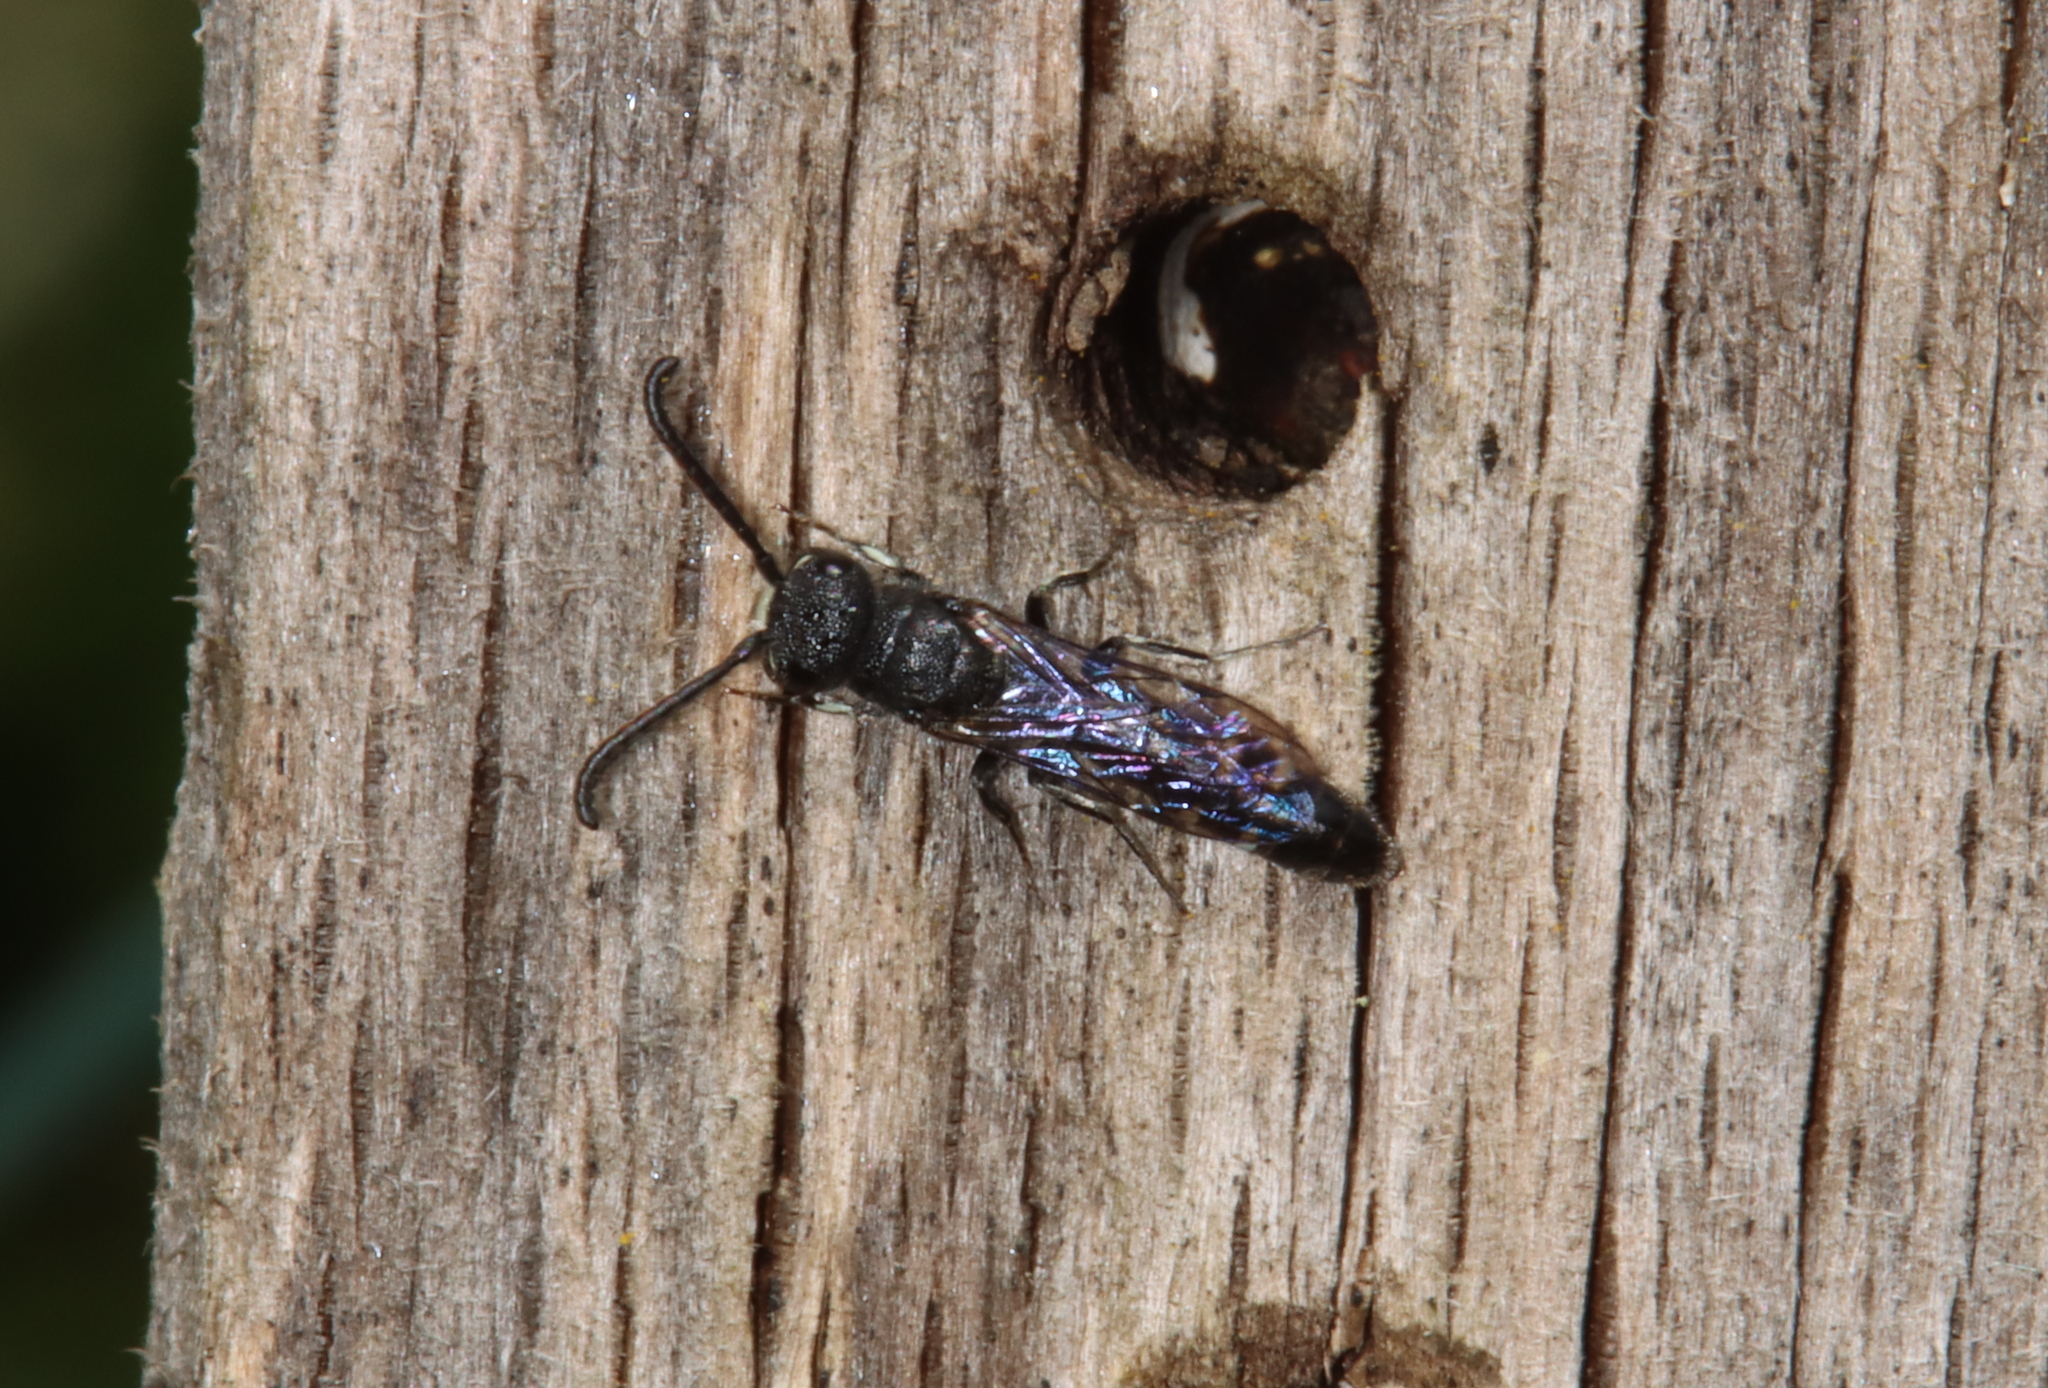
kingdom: Animalia
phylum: Arthropoda
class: Insecta
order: Hymenoptera
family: Sapygidae
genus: Sapyga
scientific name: Sapyga quinquepunctata
